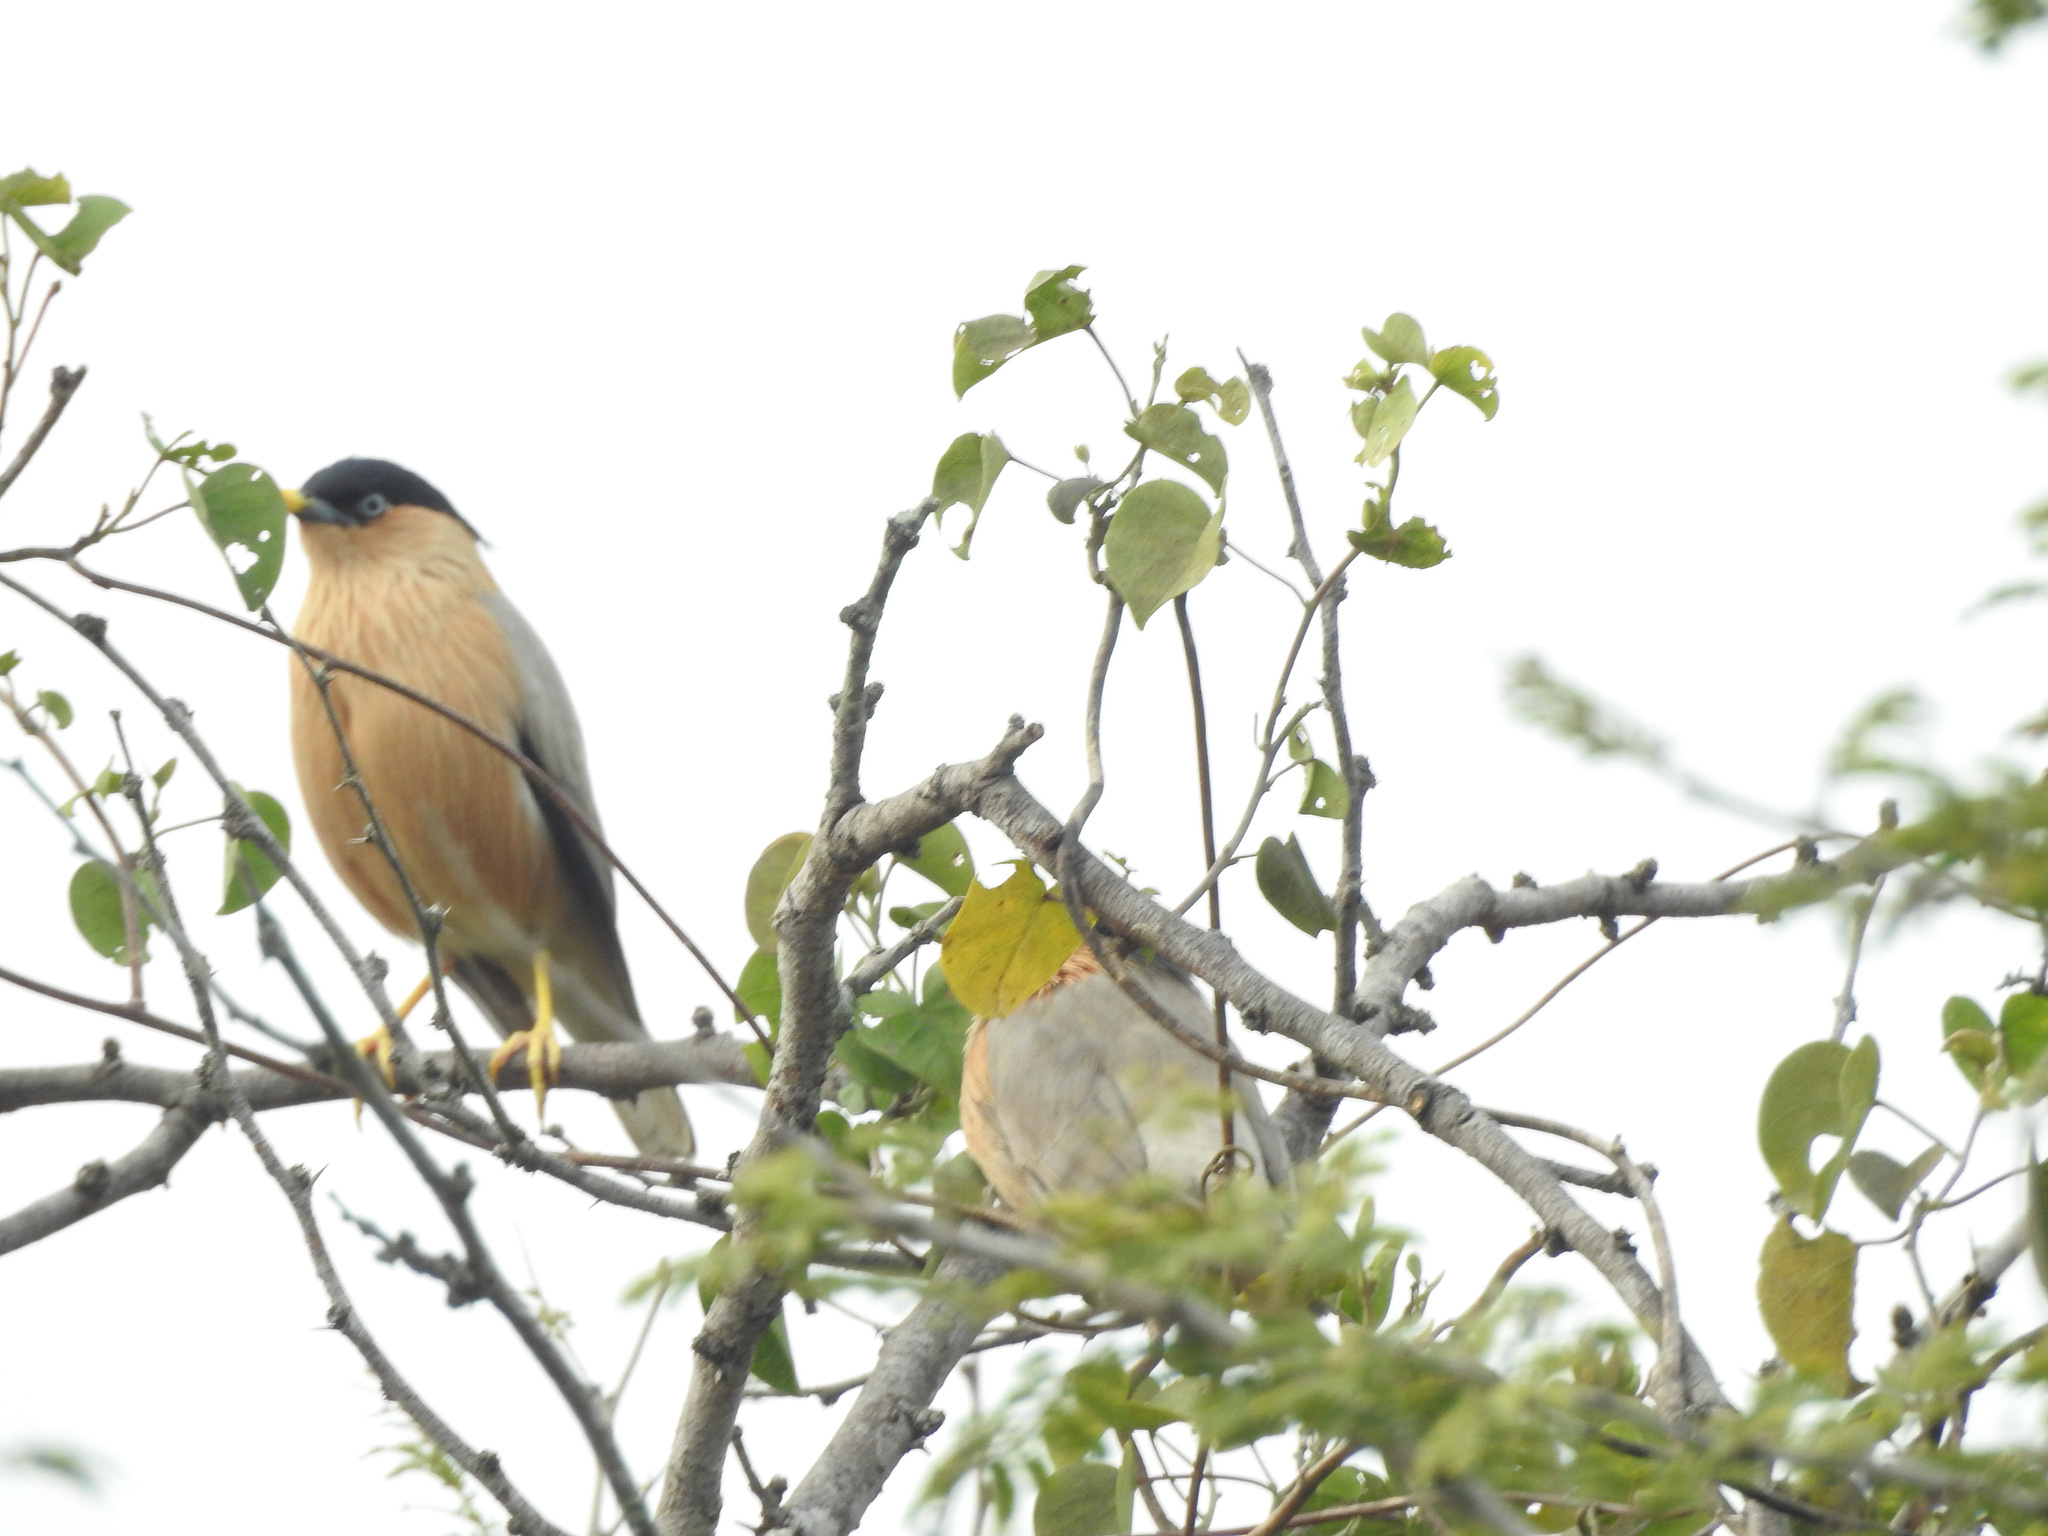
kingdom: Animalia
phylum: Chordata
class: Aves
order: Passeriformes
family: Sturnidae
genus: Sturnia
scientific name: Sturnia pagodarum
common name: Brahminy starling
